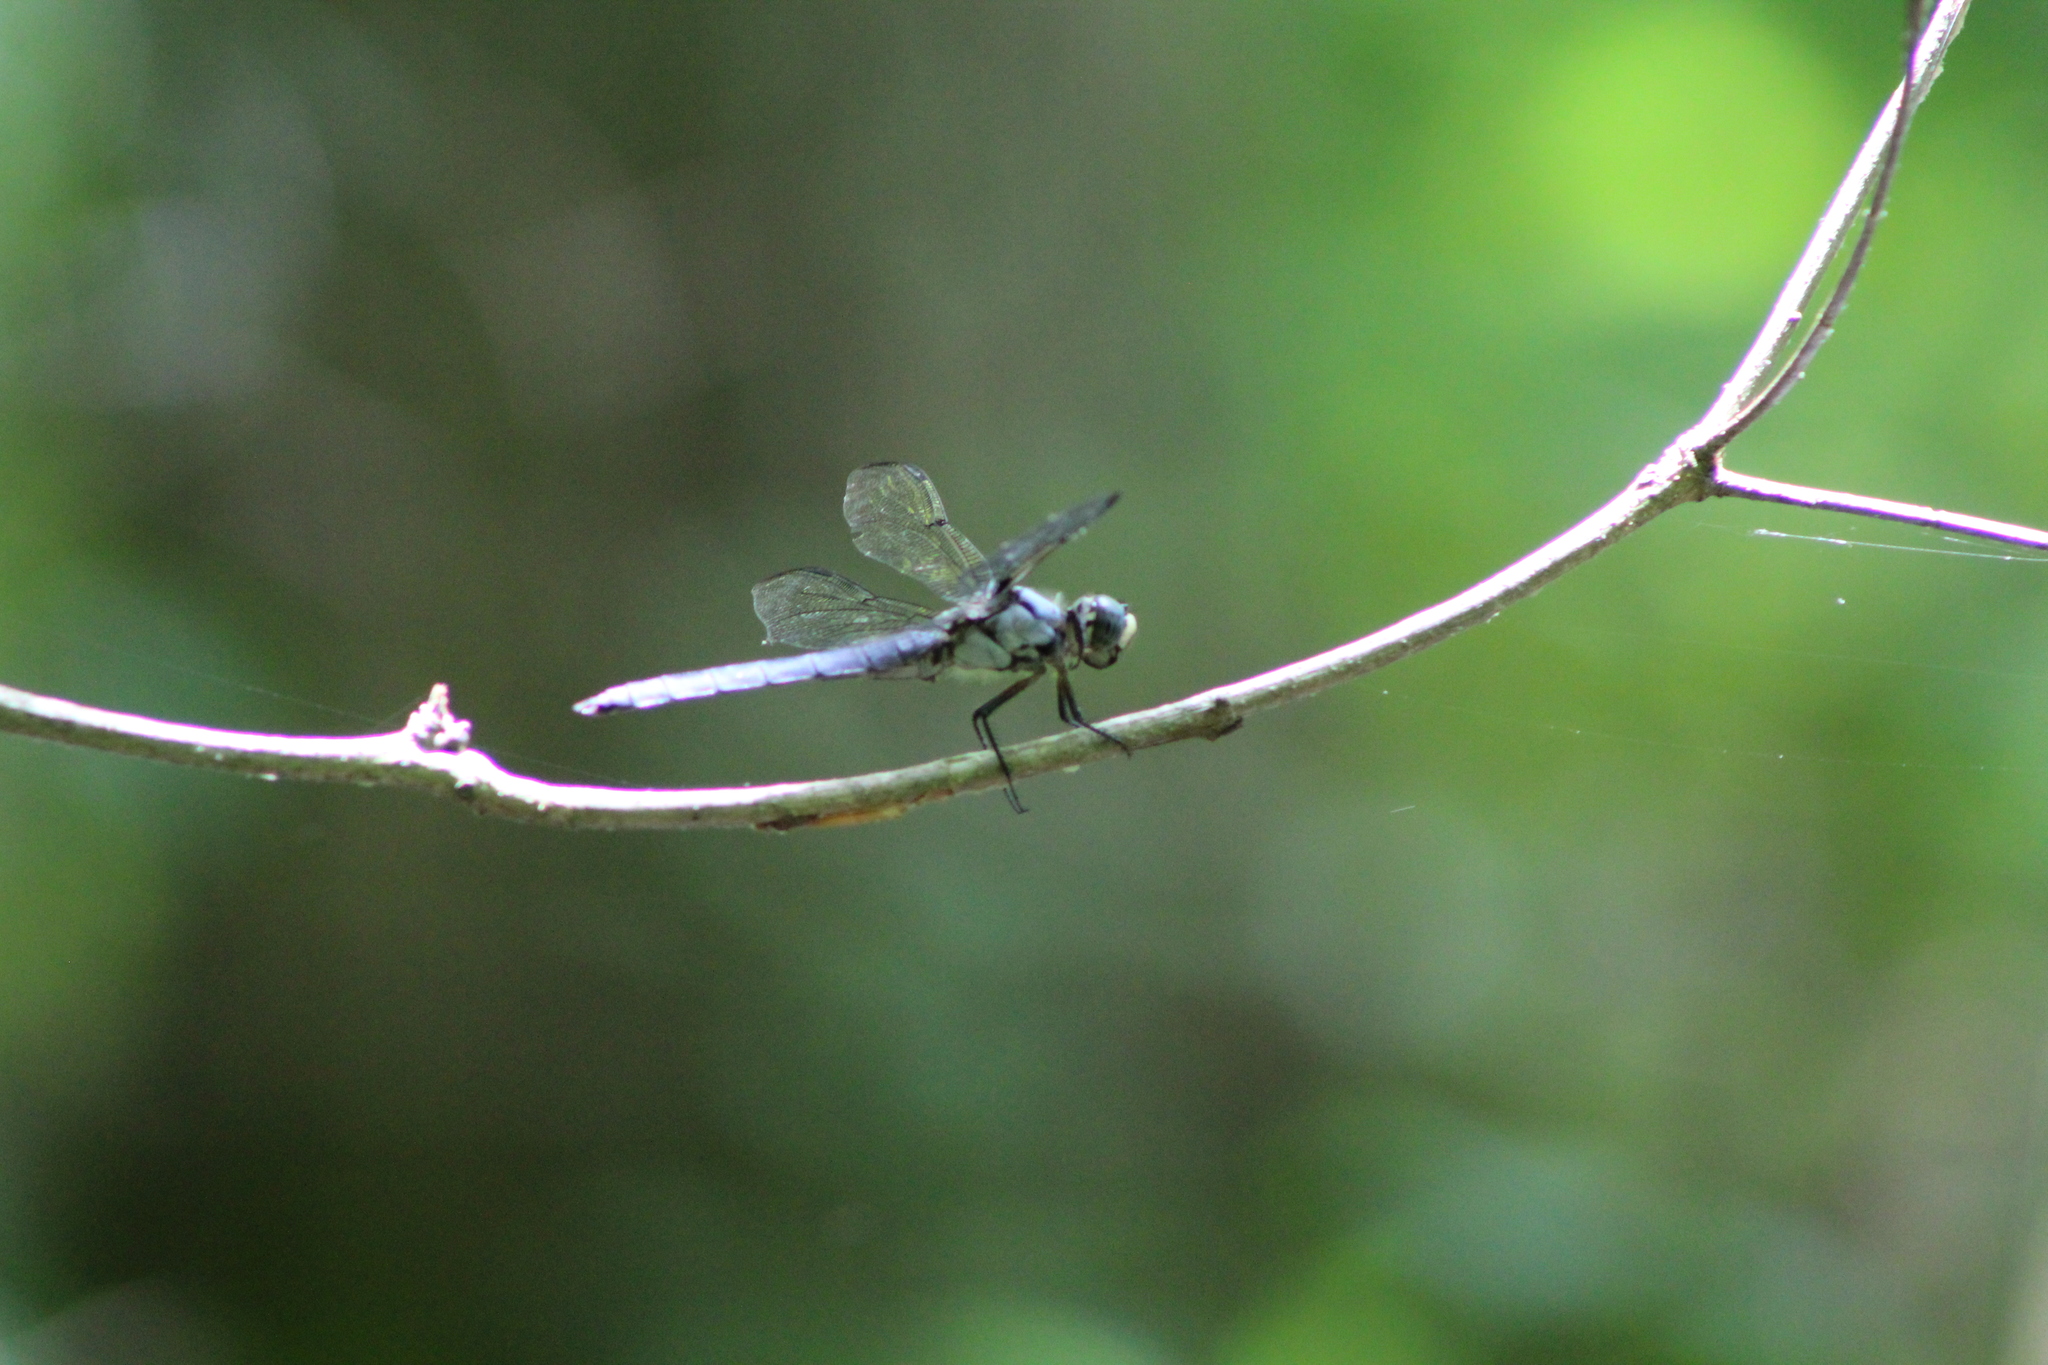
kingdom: Animalia
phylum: Arthropoda
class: Insecta
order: Odonata
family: Libellulidae
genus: Libellula
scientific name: Libellula vibrans
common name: Great blue skimmer
